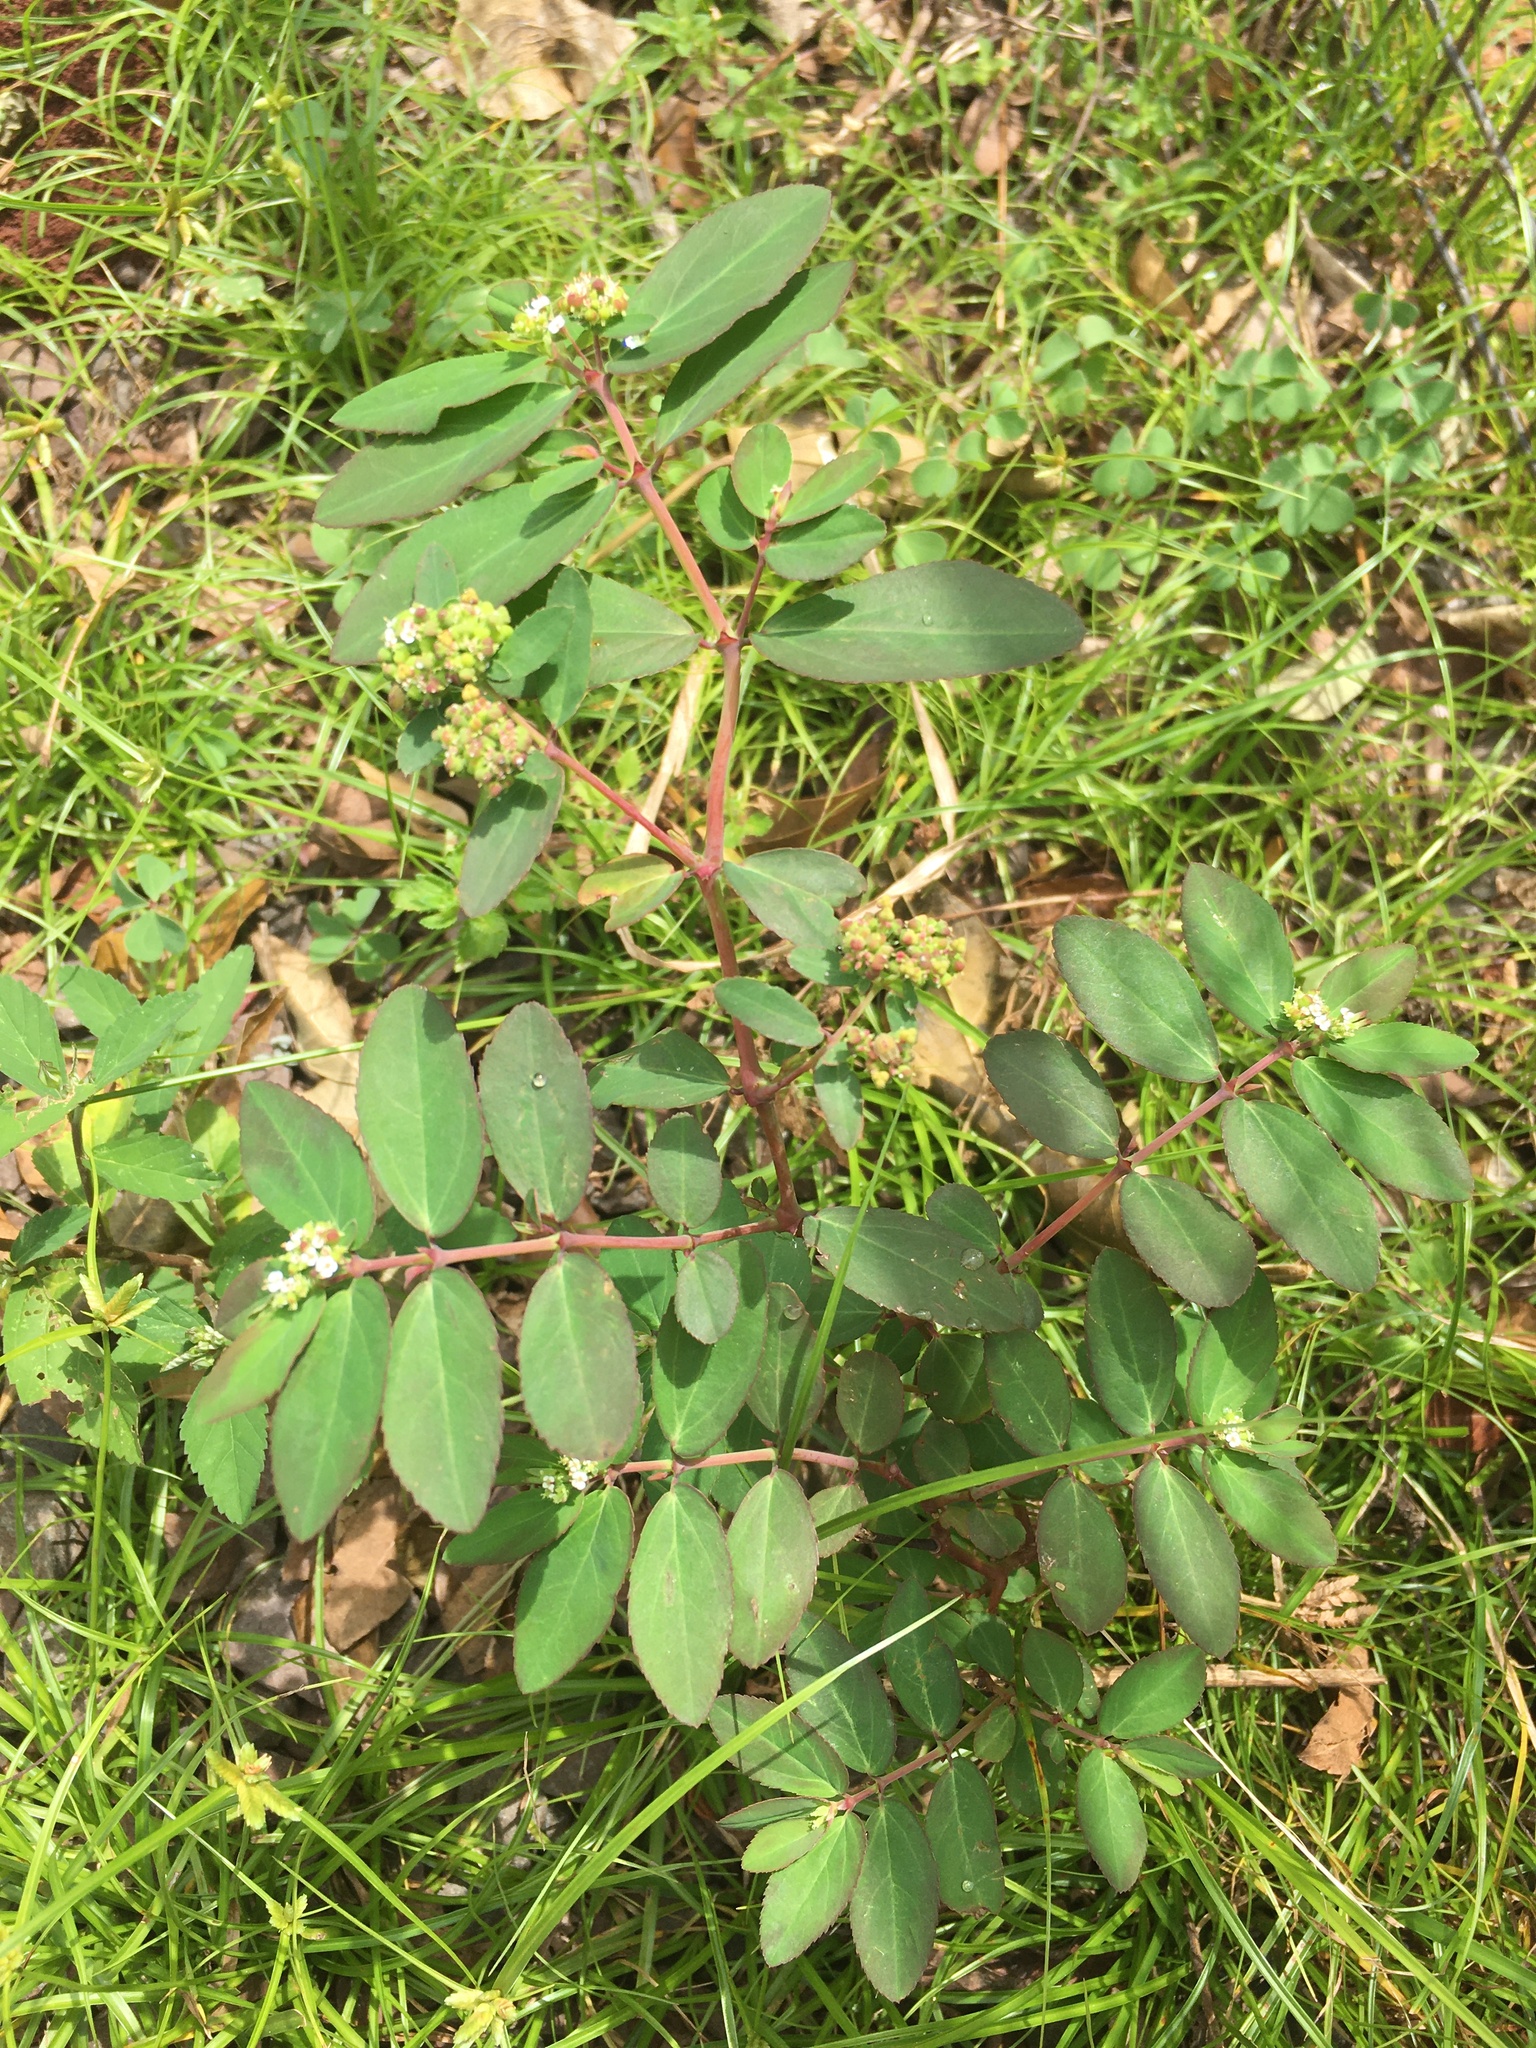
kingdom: Plantae
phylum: Tracheophyta
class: Magnoliopsida
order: Malpighiales
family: Euphorbiaceae
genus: Euphorbia
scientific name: Euphorbia hypericifolia
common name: Graceful sandmat
